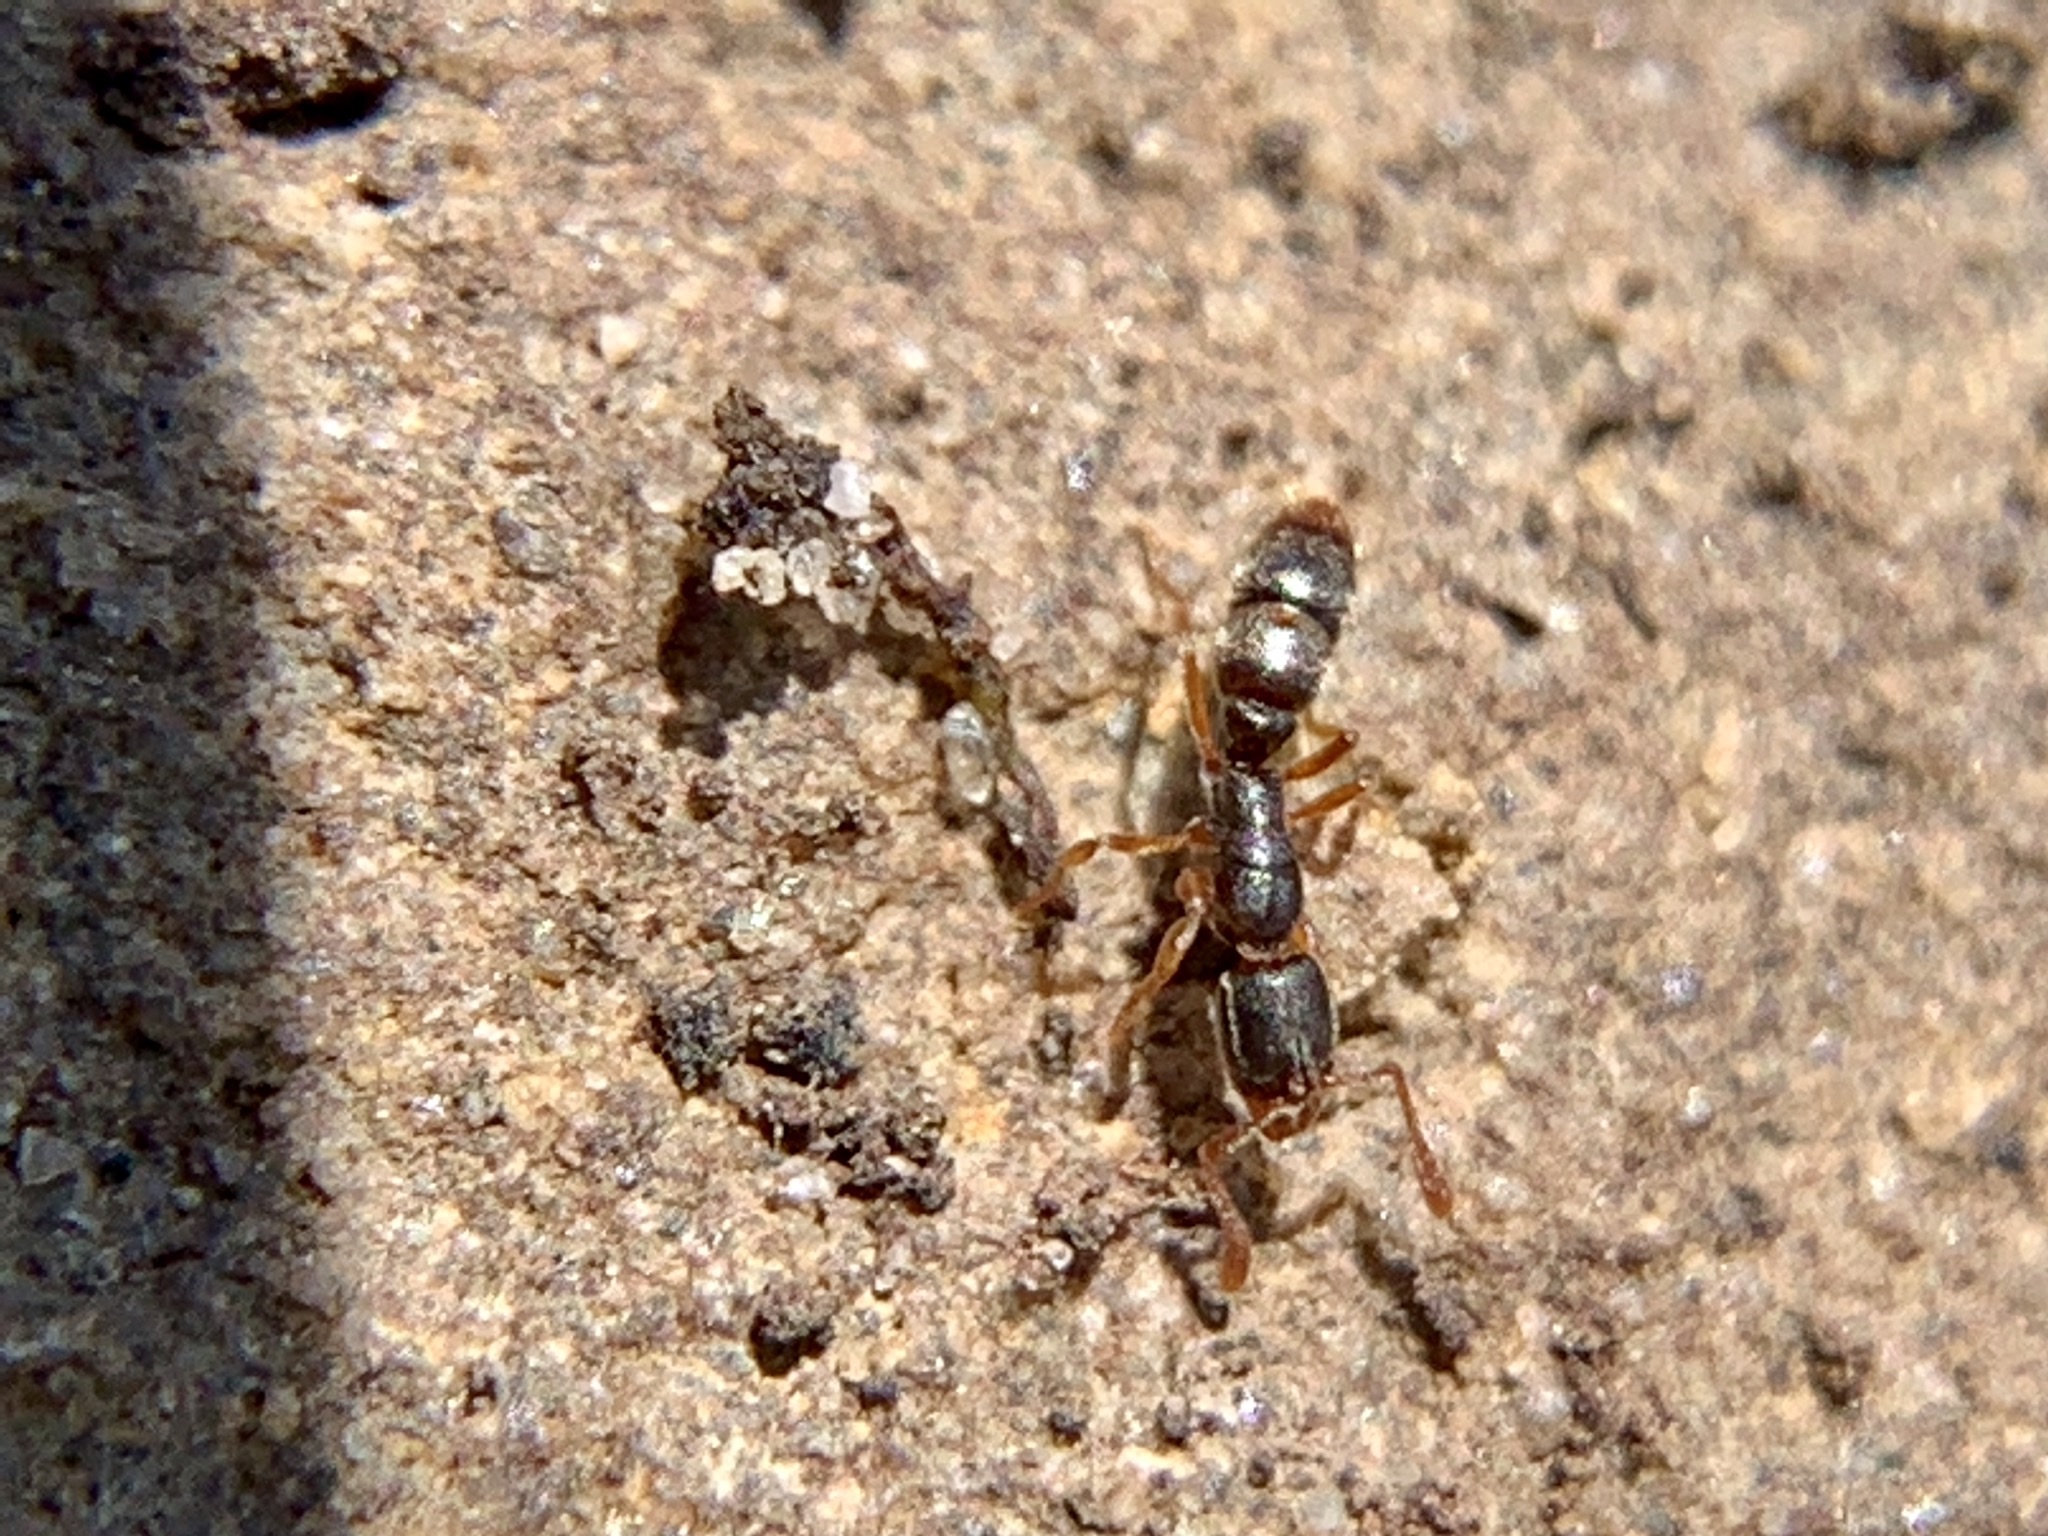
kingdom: Animalia
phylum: Arthropoda
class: Insecta
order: Hymenoptera
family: Formicidae
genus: Ponera
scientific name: Ponera pennsylvanica
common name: Pennsylvania ponera
